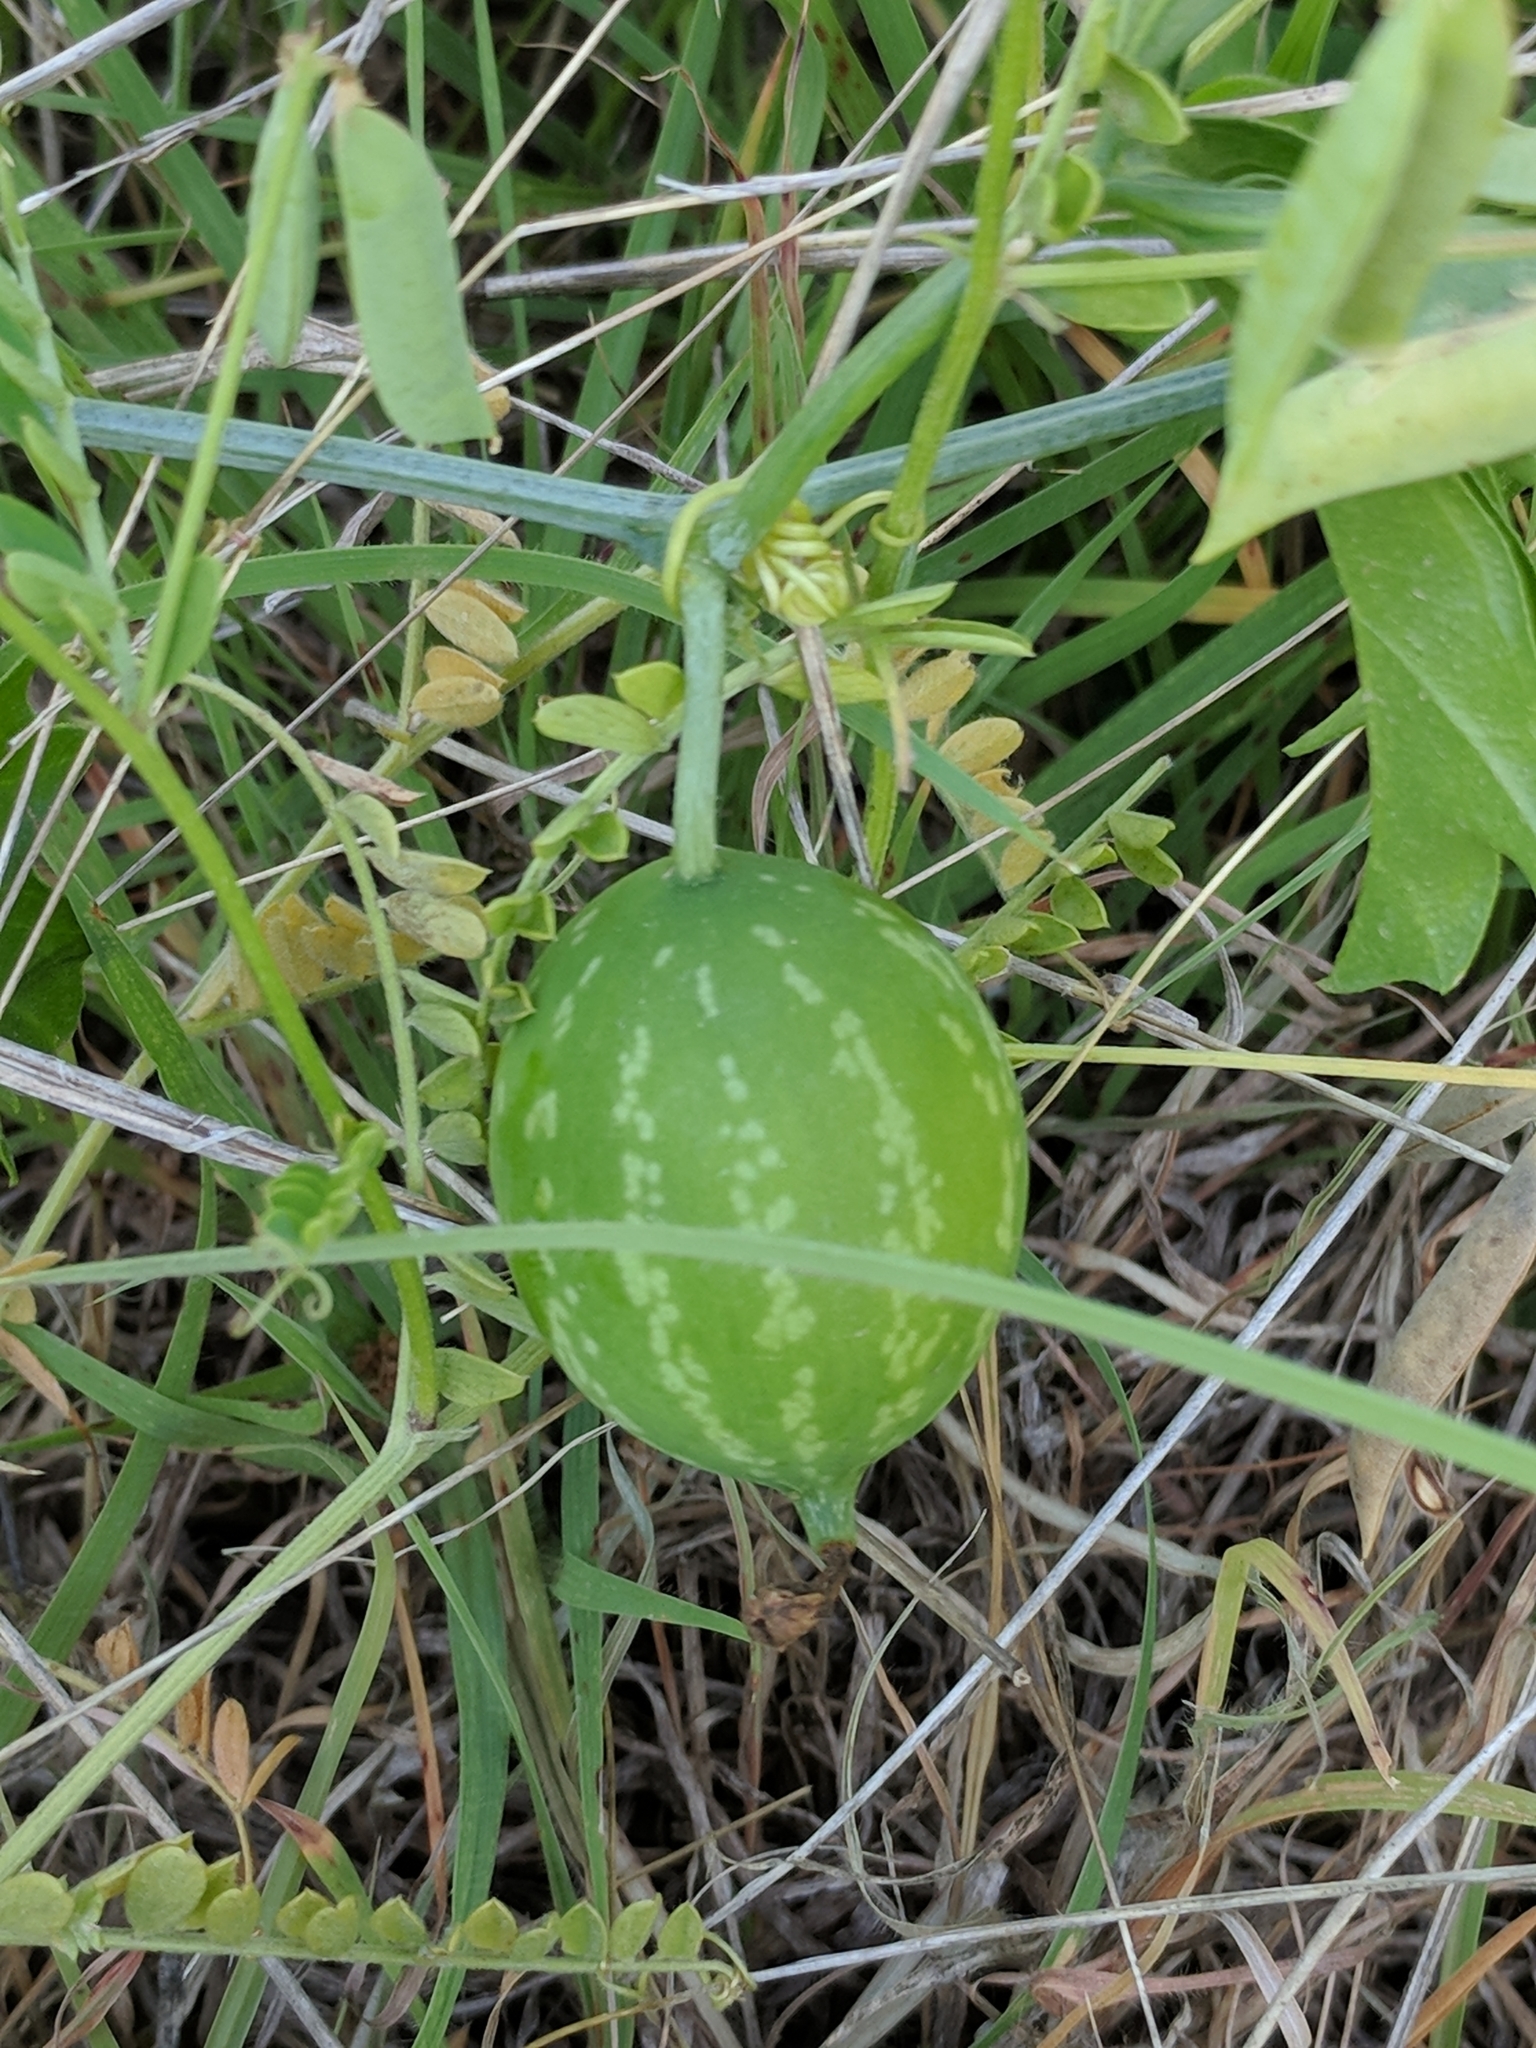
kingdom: Plantae
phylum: Tracheophyta
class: Magnoliopsida
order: Cucurbitales
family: Cucurbitaceae
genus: Ibervillea
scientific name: Ibervillea lindheimeri
